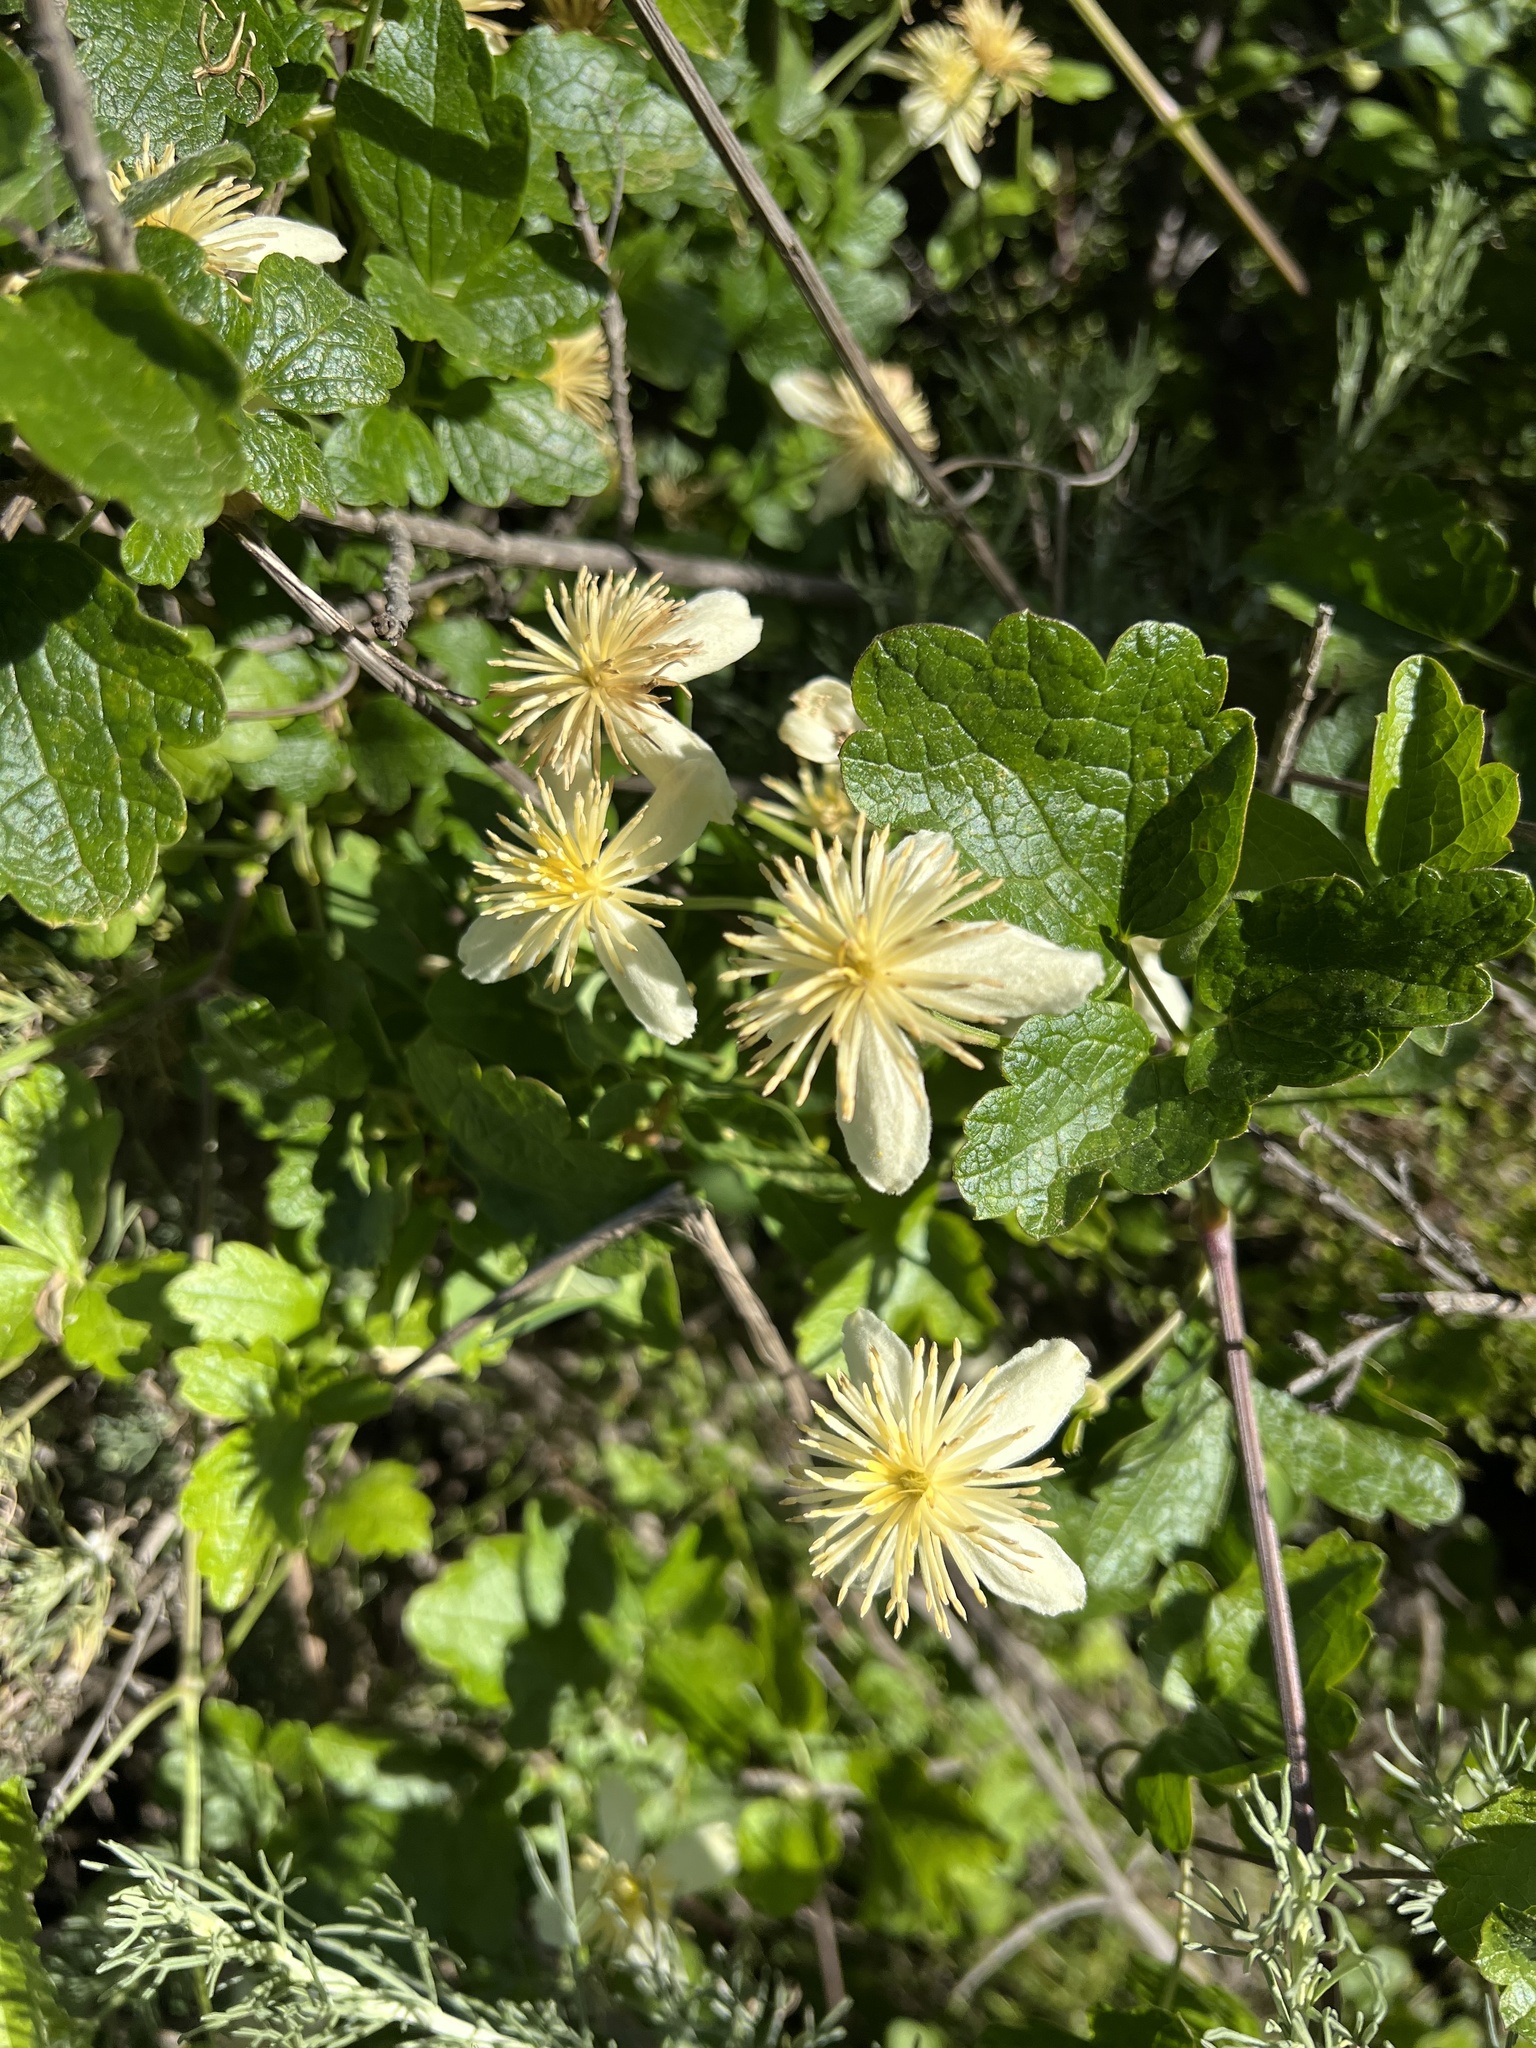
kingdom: Plantae
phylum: Tracheophyta
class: Magnoliopsida
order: Ranunculales
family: Ranunculaceae
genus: Clematis
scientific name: Clematis lasiantha
